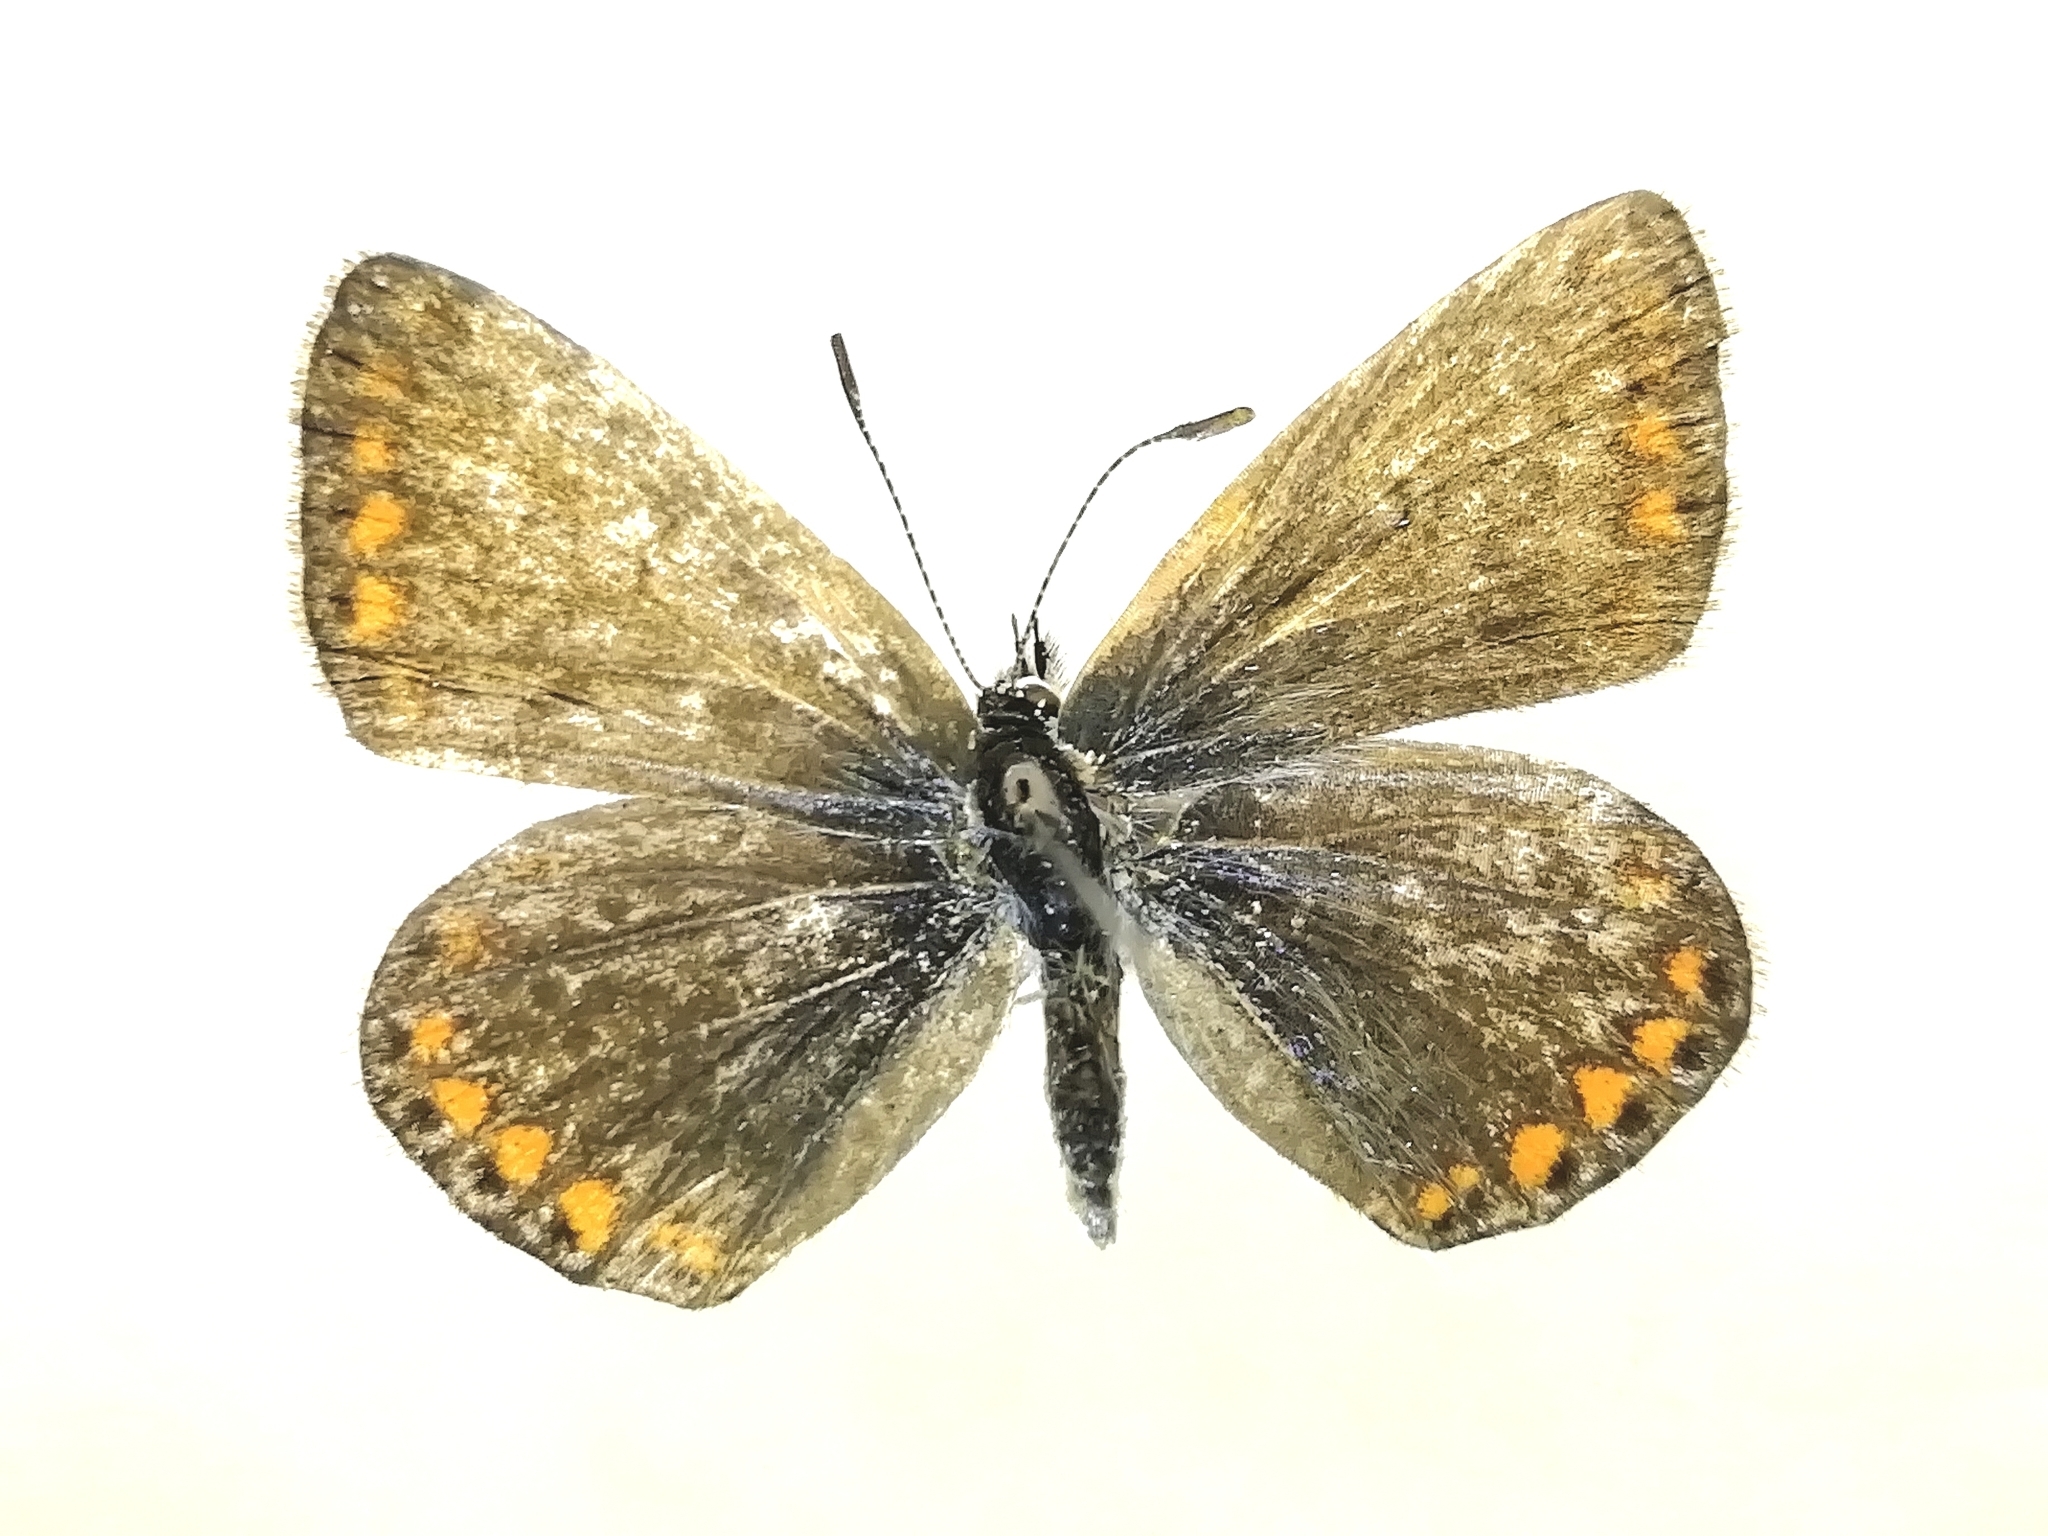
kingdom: Animalia
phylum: Arthropoda
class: Insecta
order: Lepidoptera
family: Lycaenidae
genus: Polyommatus
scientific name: Polyommatus icarus
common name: Common blue
